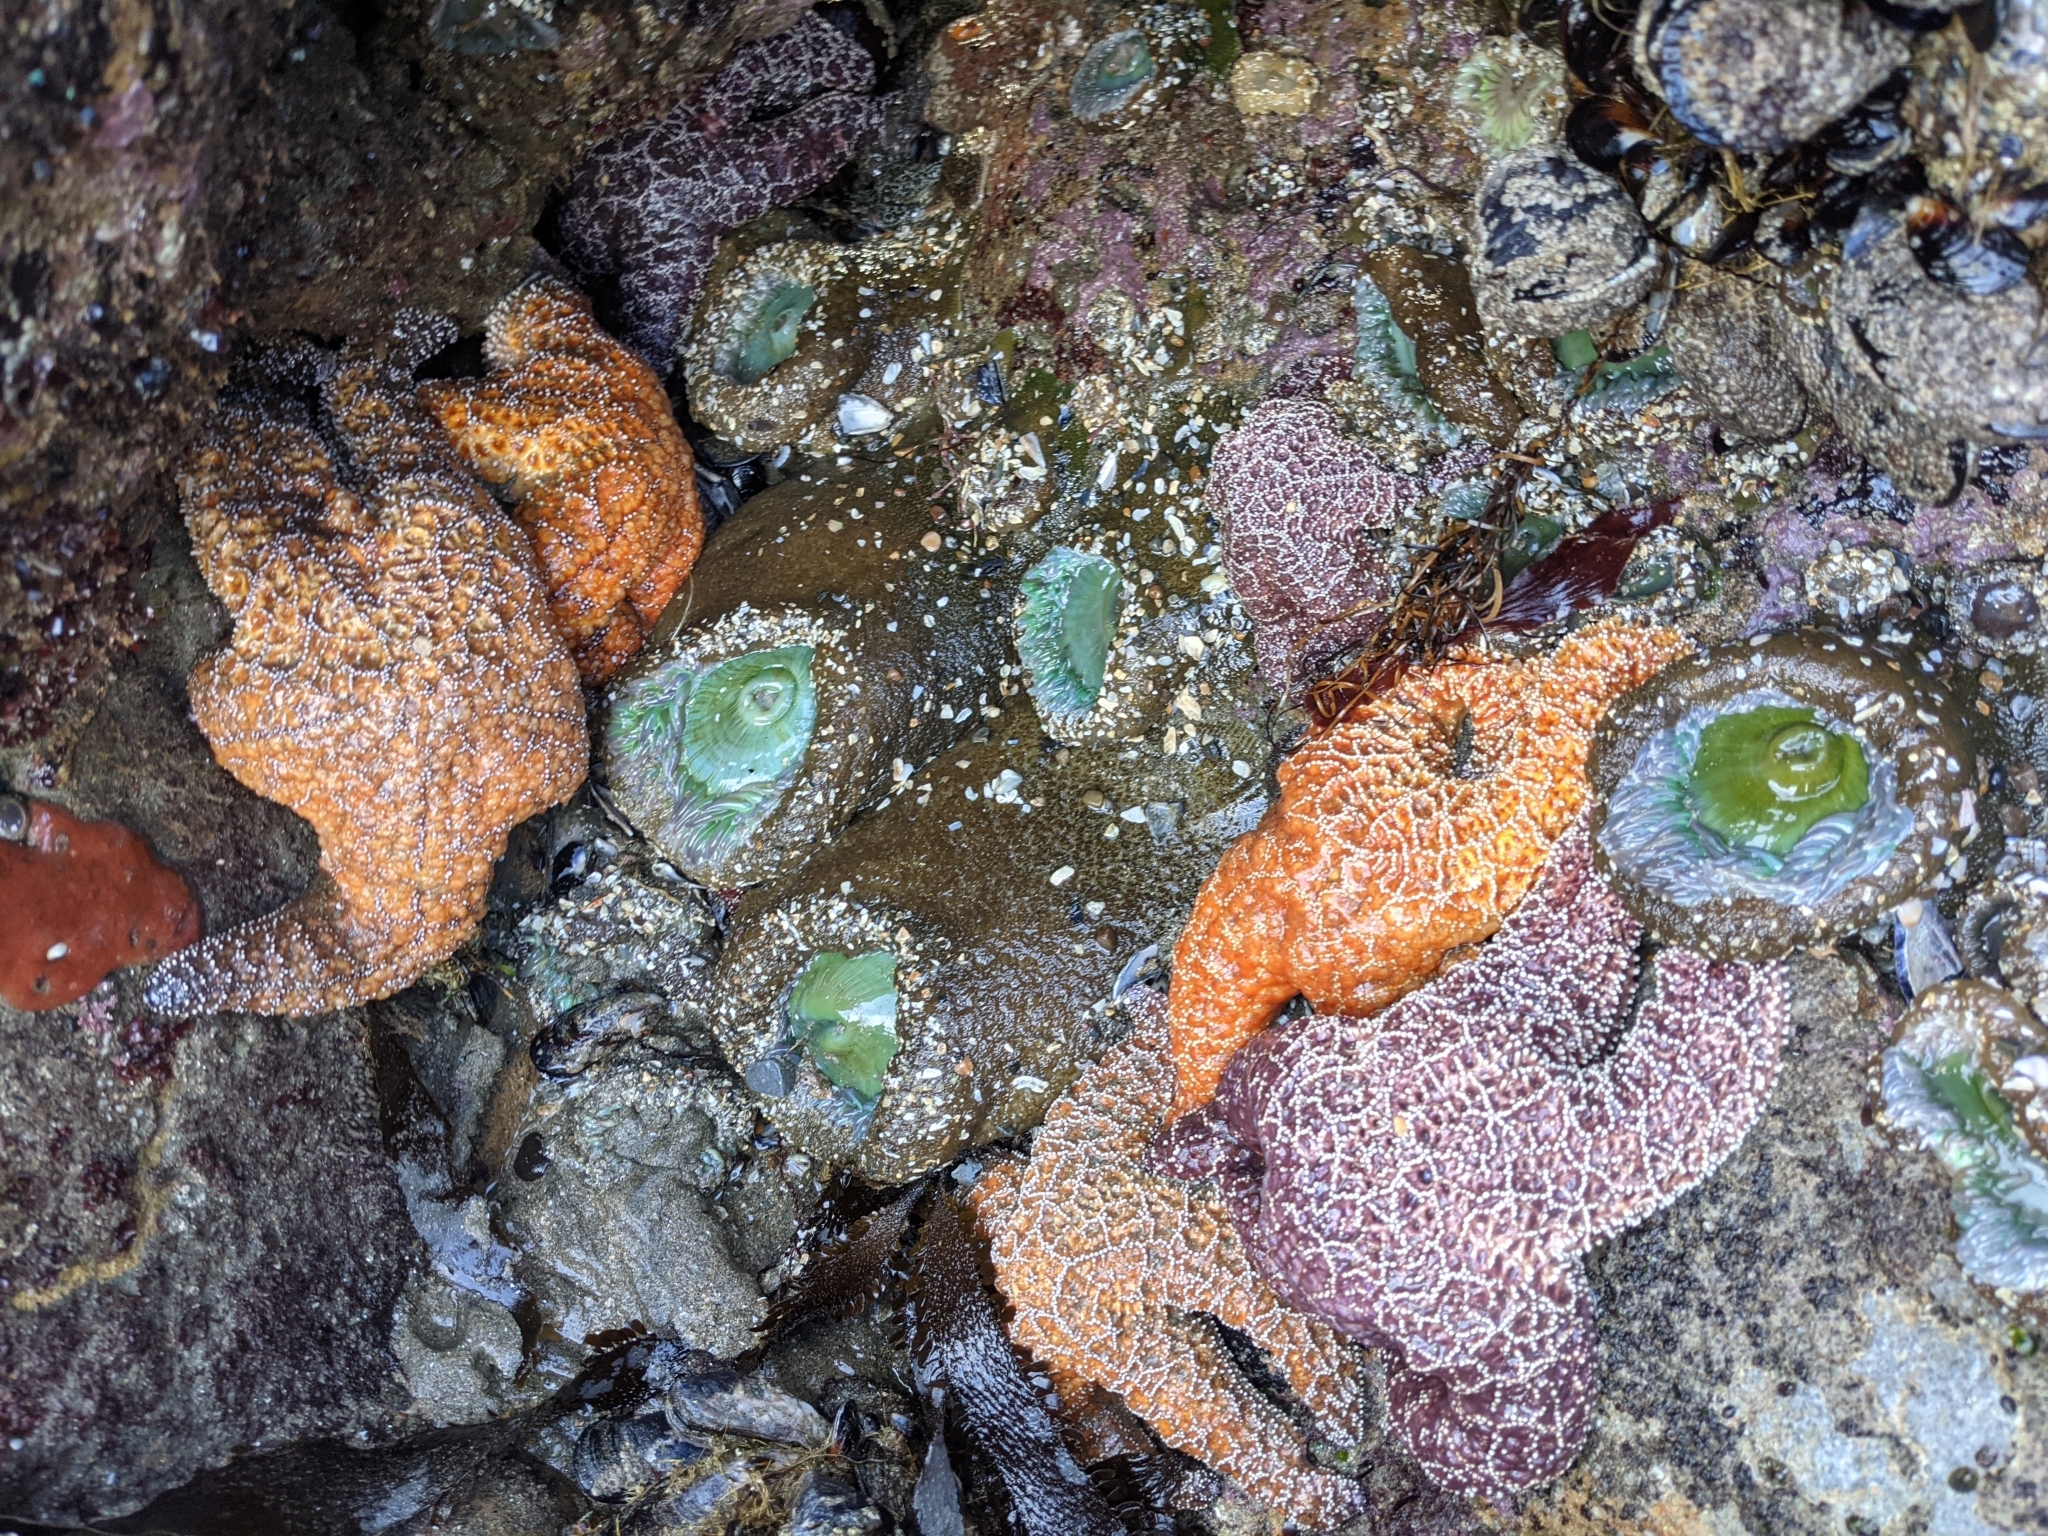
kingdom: Animalia
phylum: Echinodermata
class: Asteroidea
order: Forcipulatida
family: Asteriidae
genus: Pisaster
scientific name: Pisaster ochraceus
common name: Ochre stars
